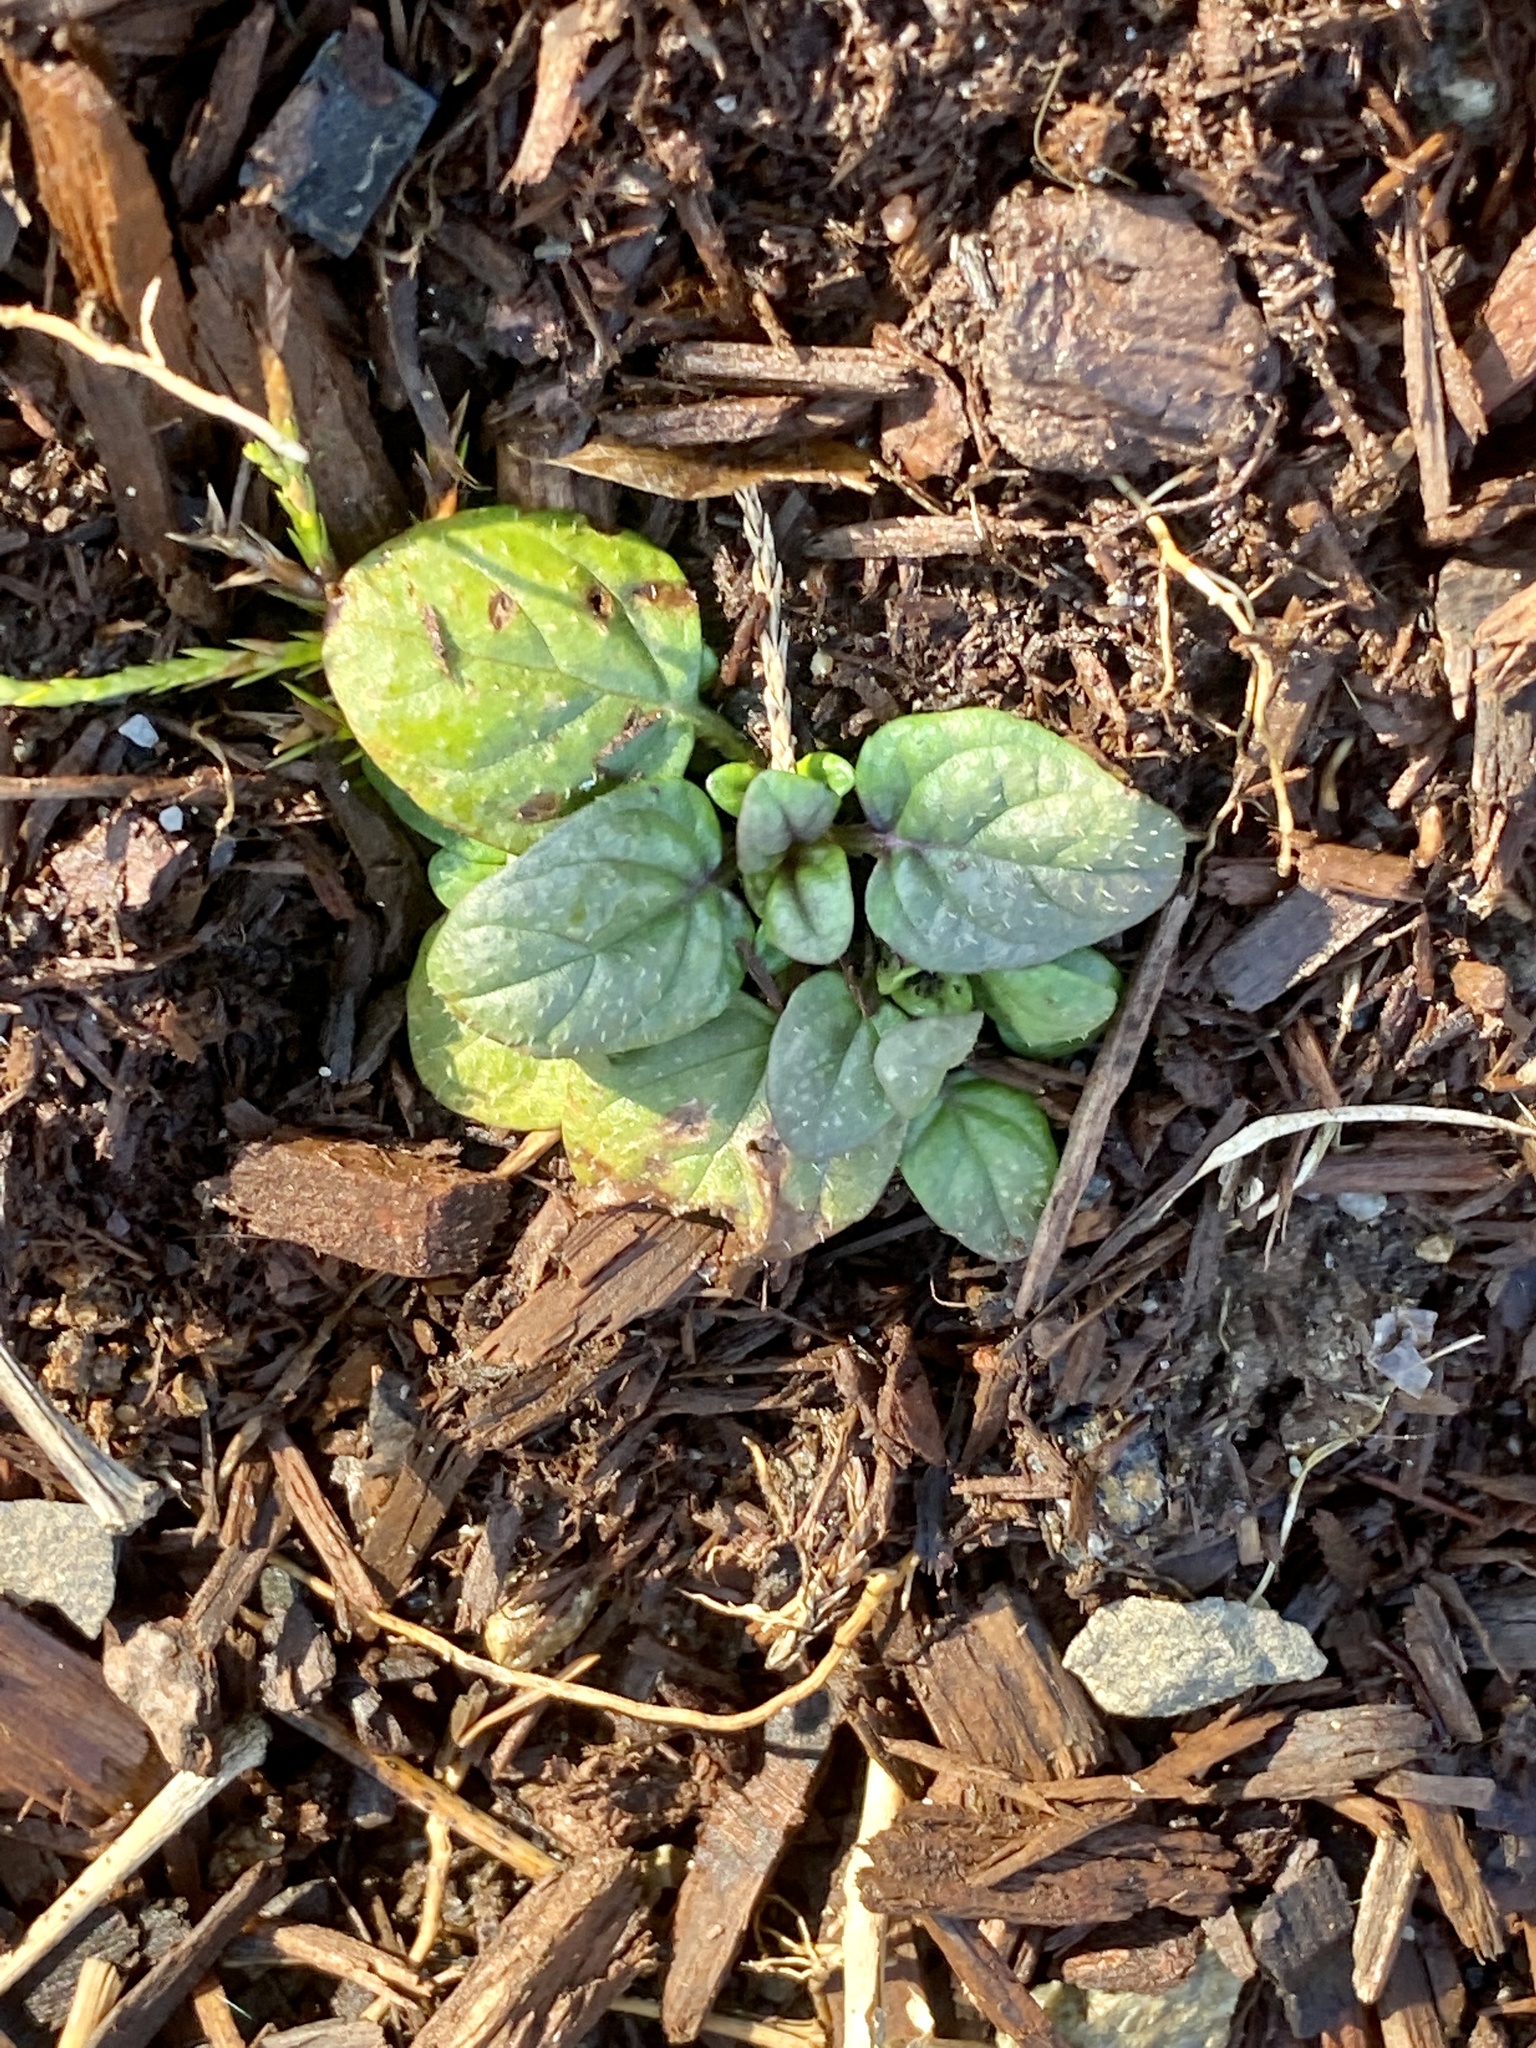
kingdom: Plantae
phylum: Tracheophyta
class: Magnoliopsida
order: Lamiales
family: Lamiaceae
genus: Prunella
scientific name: Prunella vulgaris
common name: Heal-all
